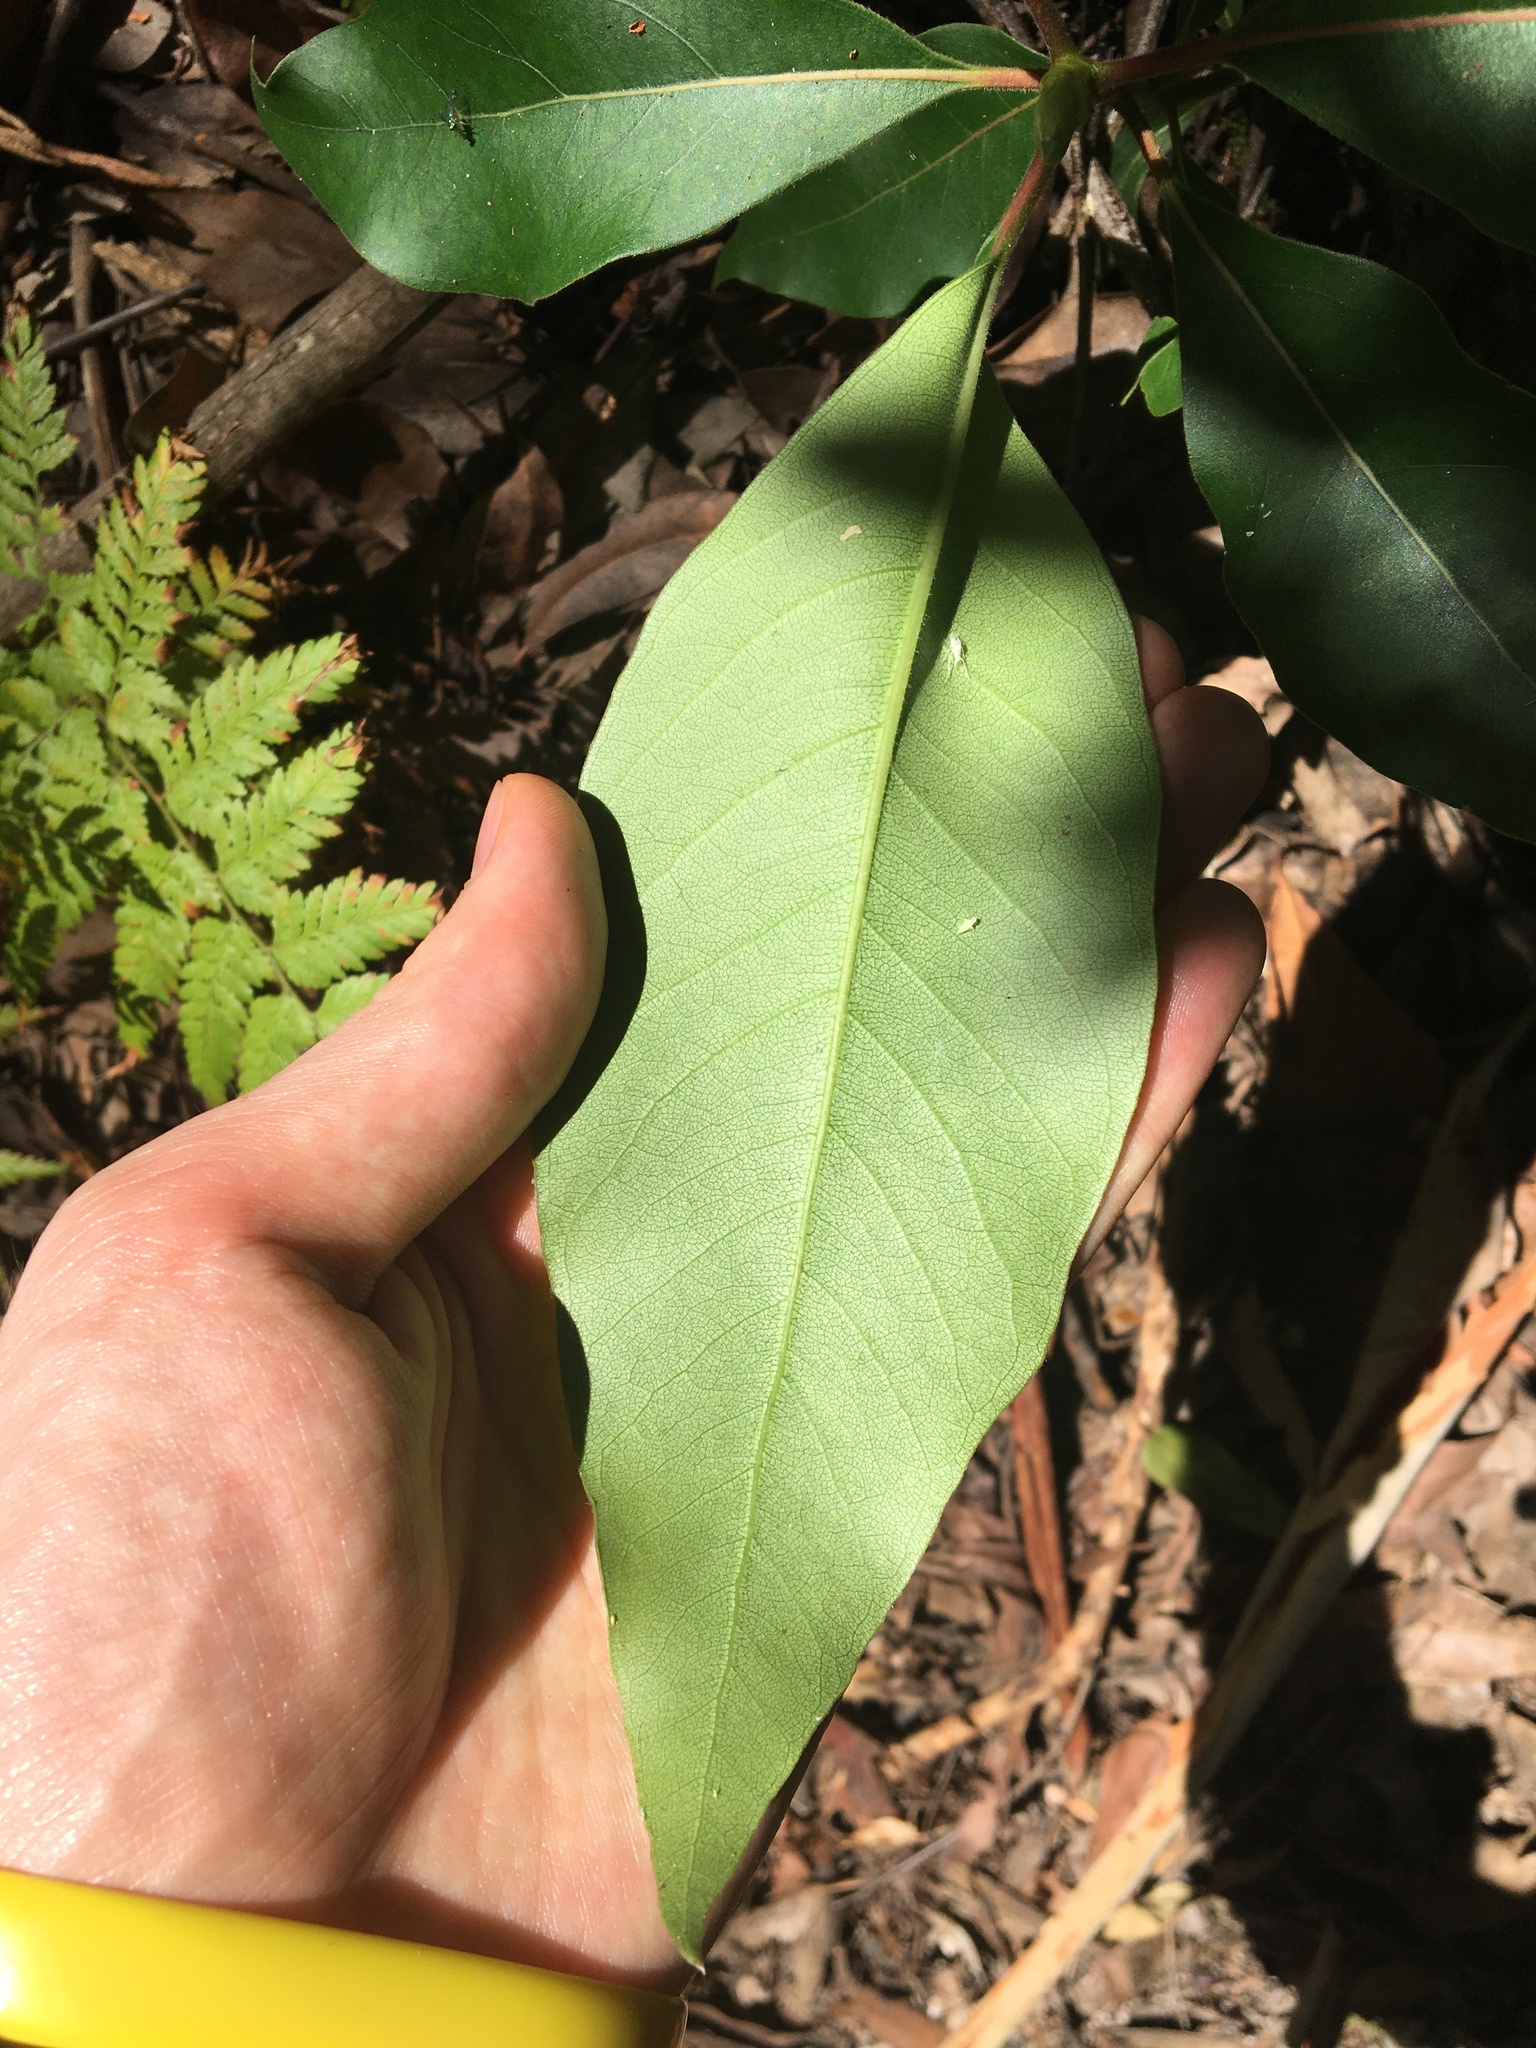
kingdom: Plantae
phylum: Tracheophyta
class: Magnoliopsida
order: Myrtales
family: Myrtaceae
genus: Lophostemon
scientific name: Lophostemon confertus
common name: Brisbane box
